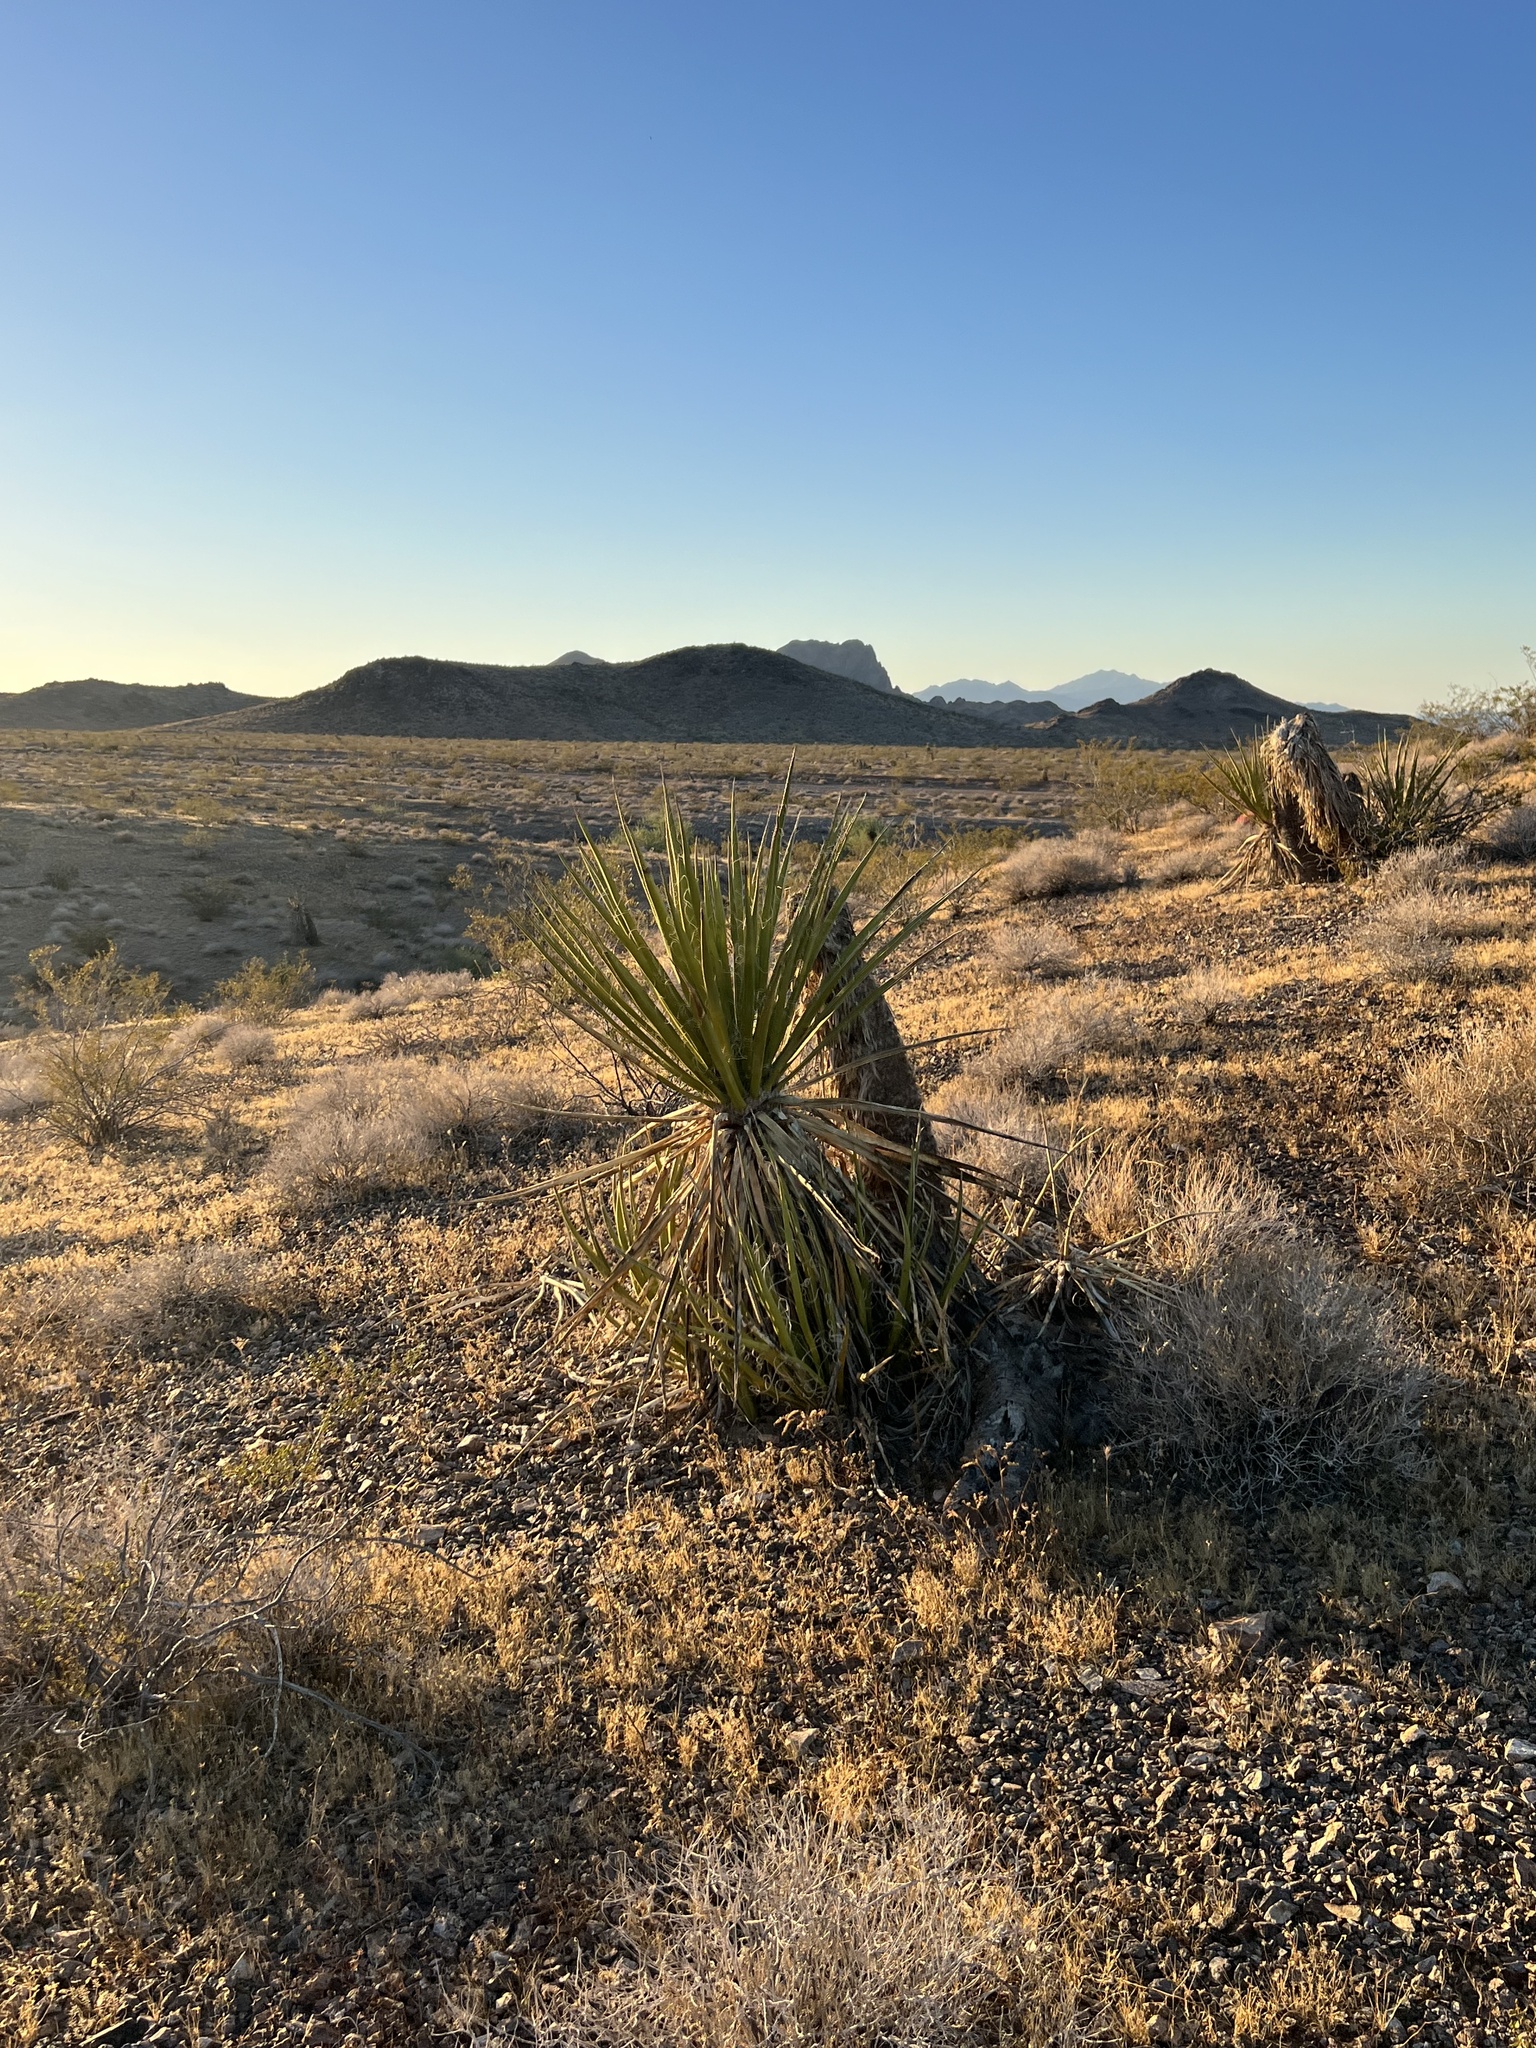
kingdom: Plantae
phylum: Tracheophyta
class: Liliopsida
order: Asparagales
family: Asparagaceae
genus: Yucca
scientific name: Yucca schidigera
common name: Mojave yucca
